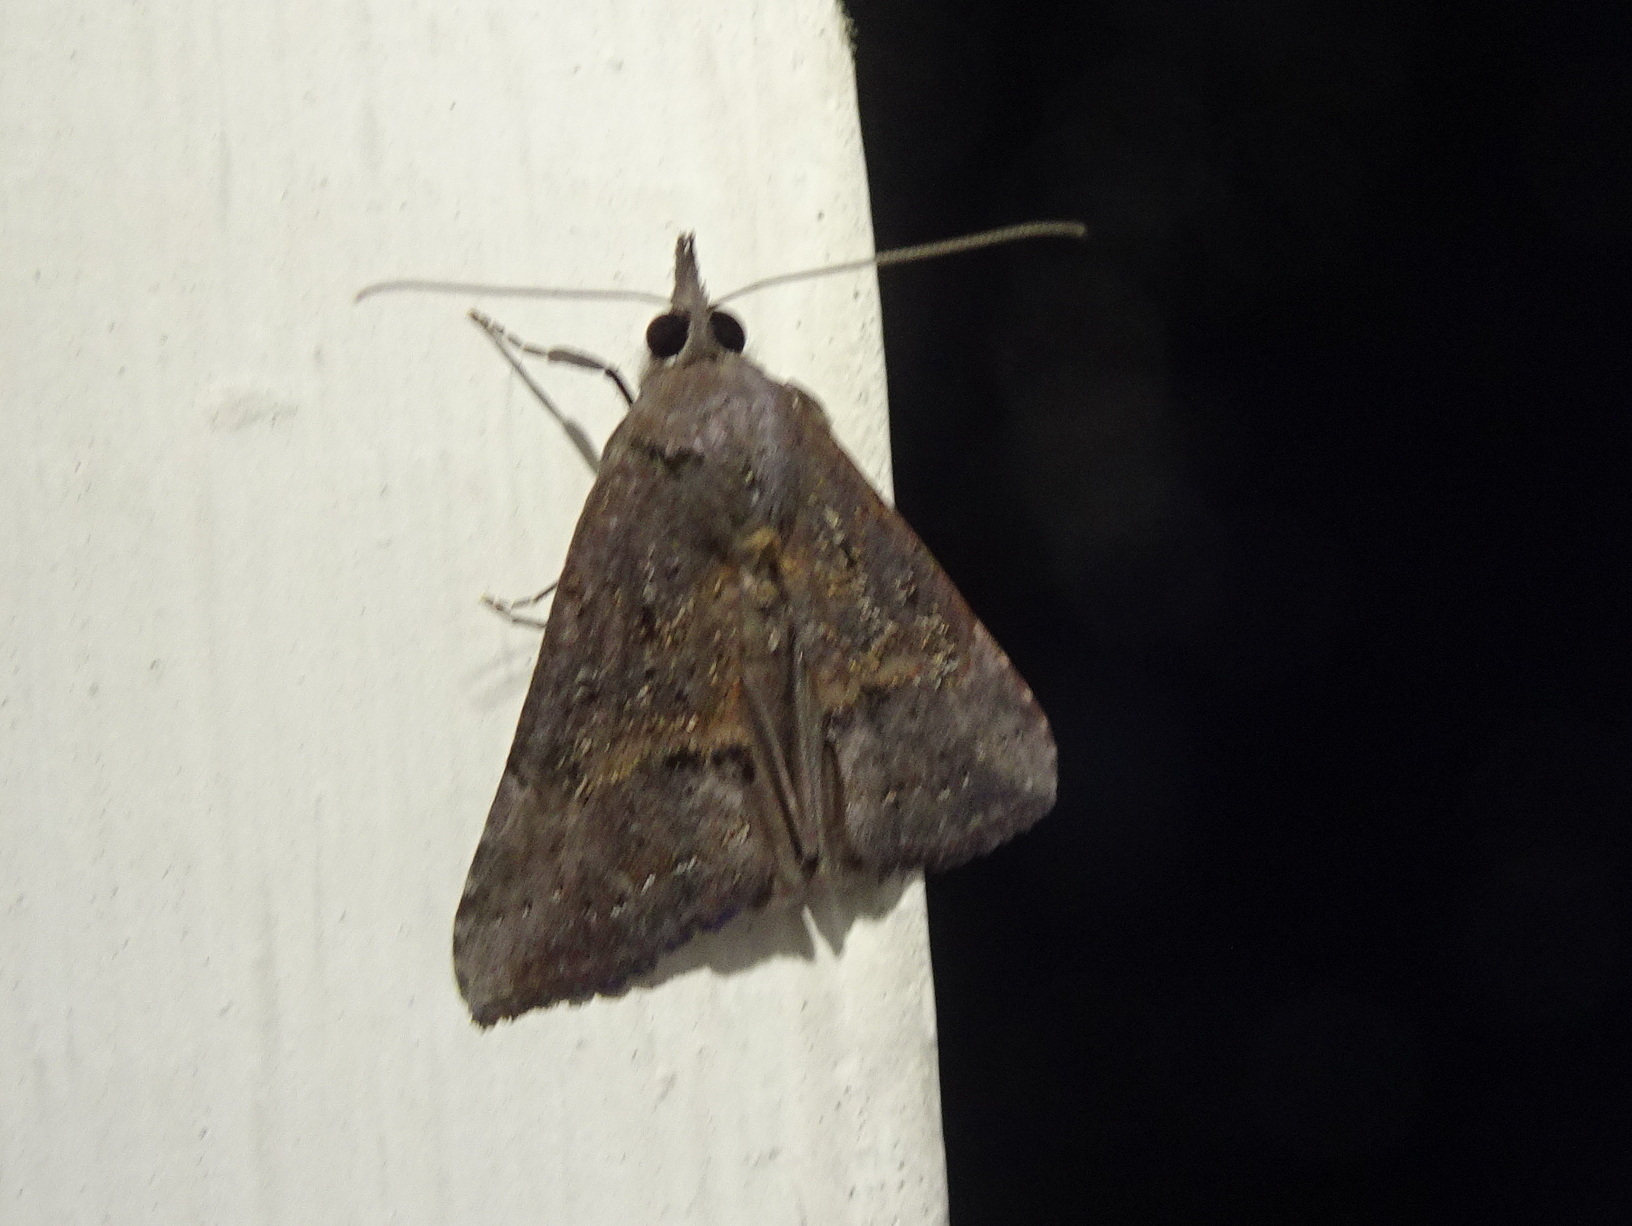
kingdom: Animalia
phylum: Arthropoda
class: Insecta
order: Lepidoptera
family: Erebidae
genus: Hypena
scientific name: Hypena scabra
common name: Green cloverworm
